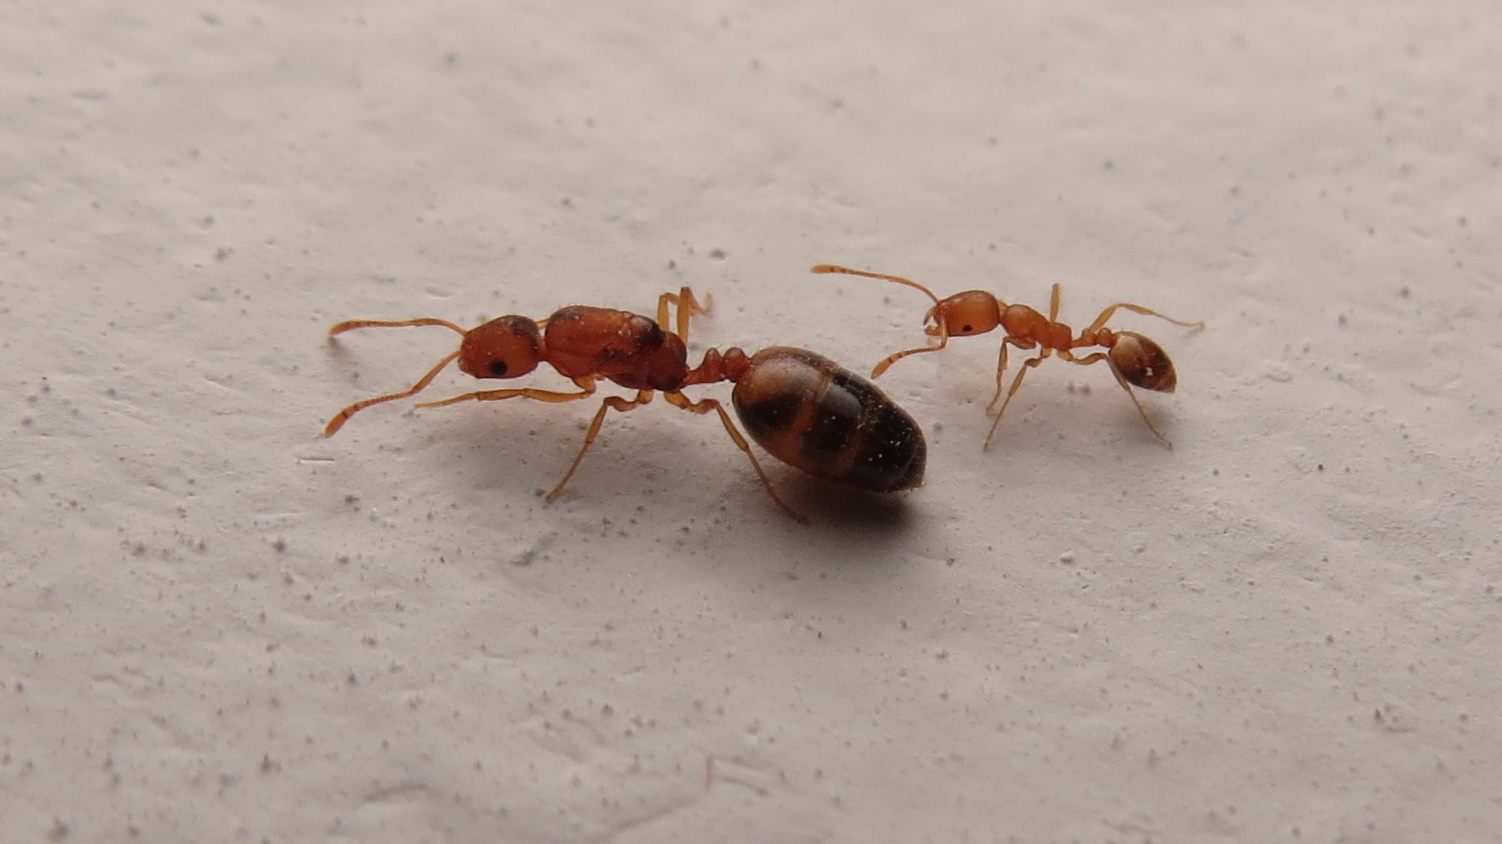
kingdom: Animalia
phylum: Arthropoda
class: Insecta
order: Hymenoptera
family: Formicidae
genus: Monomorium
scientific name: Monomorium pharaonis
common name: Pharaoh ant
